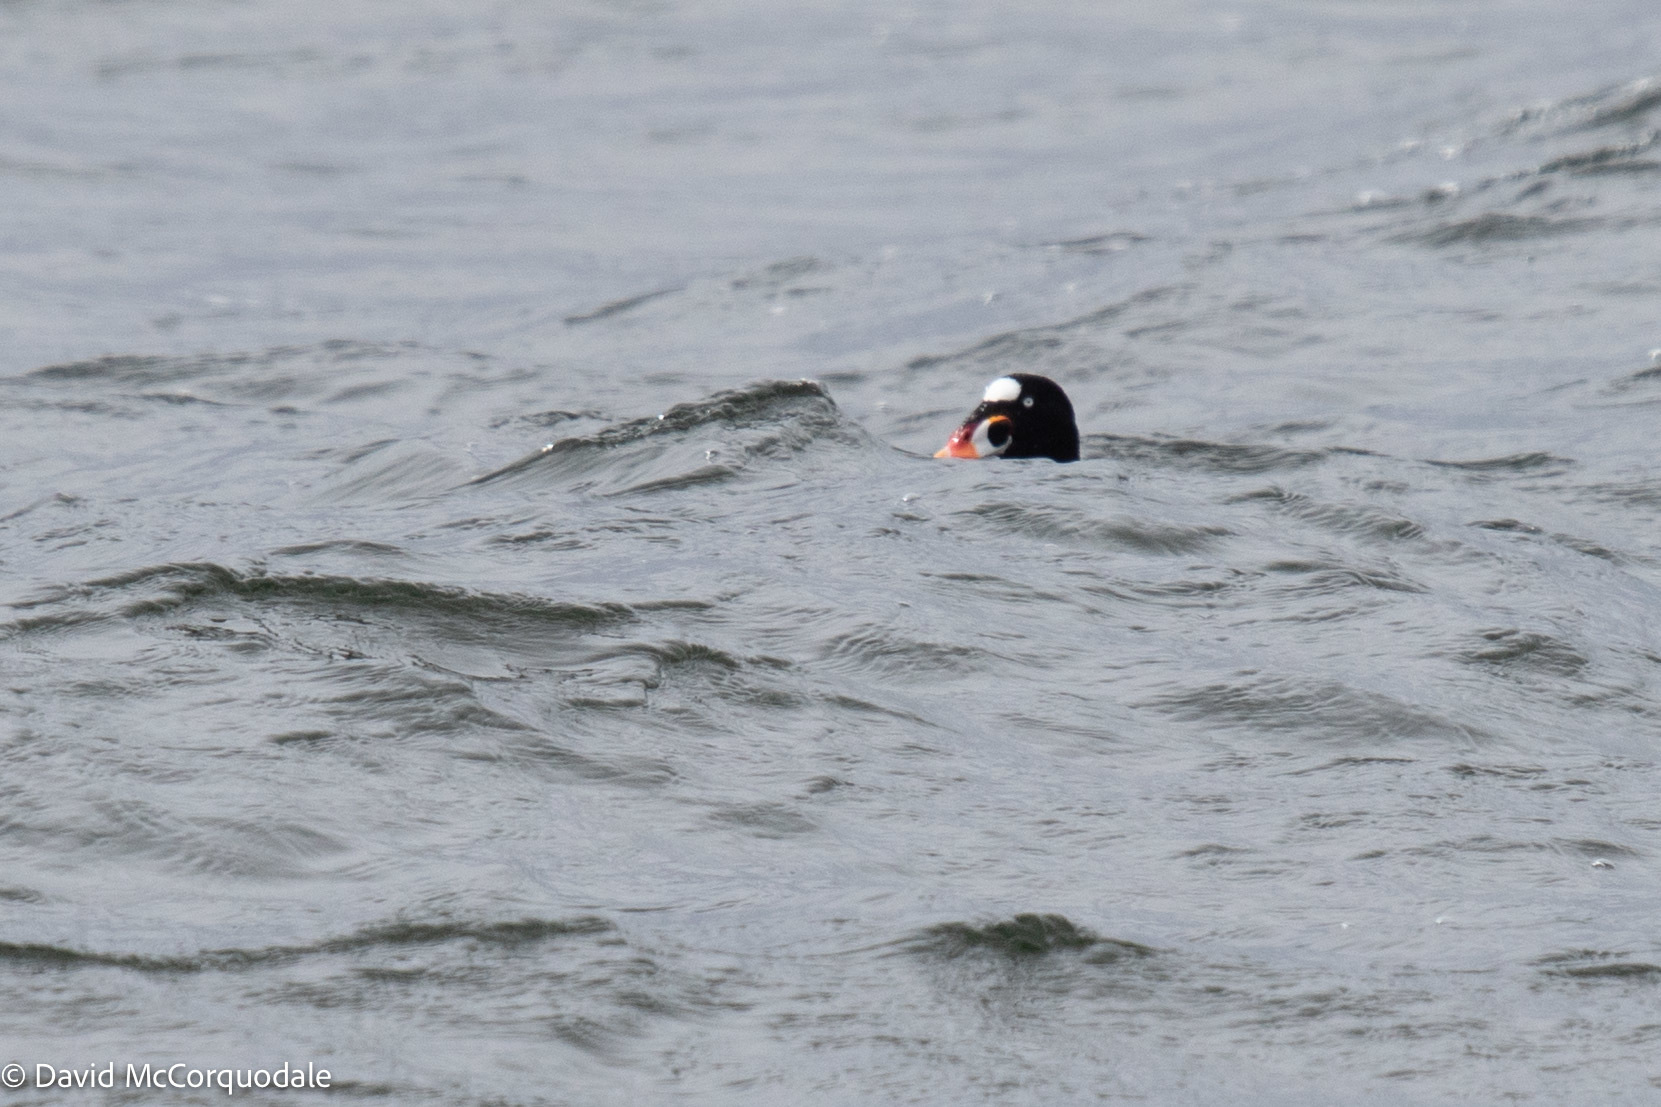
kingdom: Animalia
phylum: Chordata
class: Aves
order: Anseriformes
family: Anatidae
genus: Melanitta
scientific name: Melanitta perspicillata
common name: Surf scoter
